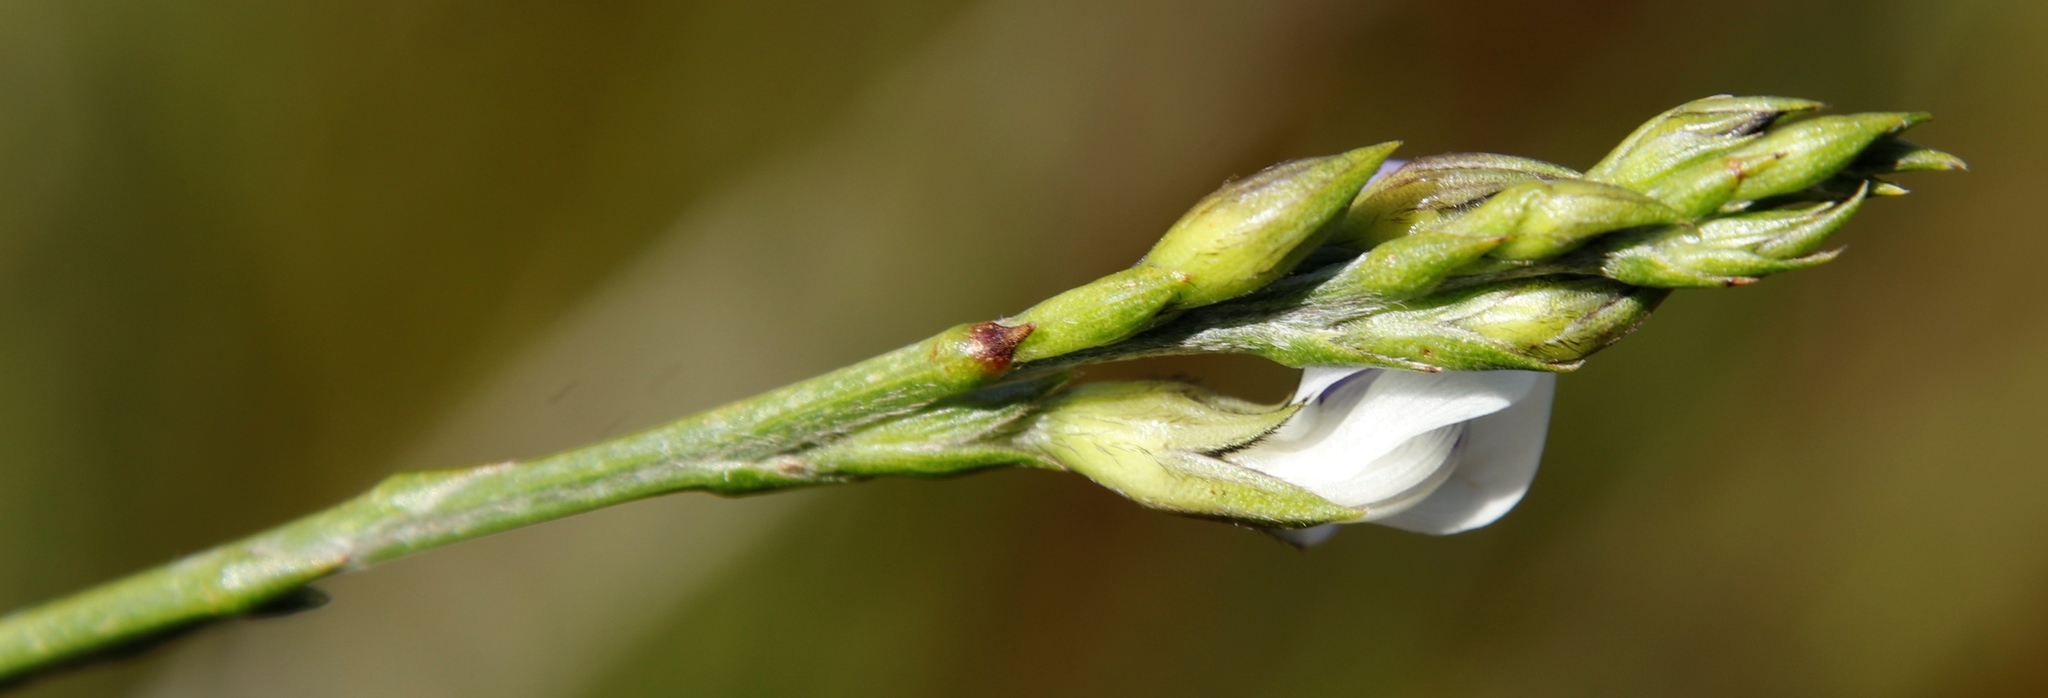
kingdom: Plantae
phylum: Tracheophyta
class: Magnoliopsida
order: Fabales
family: Fabaceae
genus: Psoralea
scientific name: Psoralea aphylla
